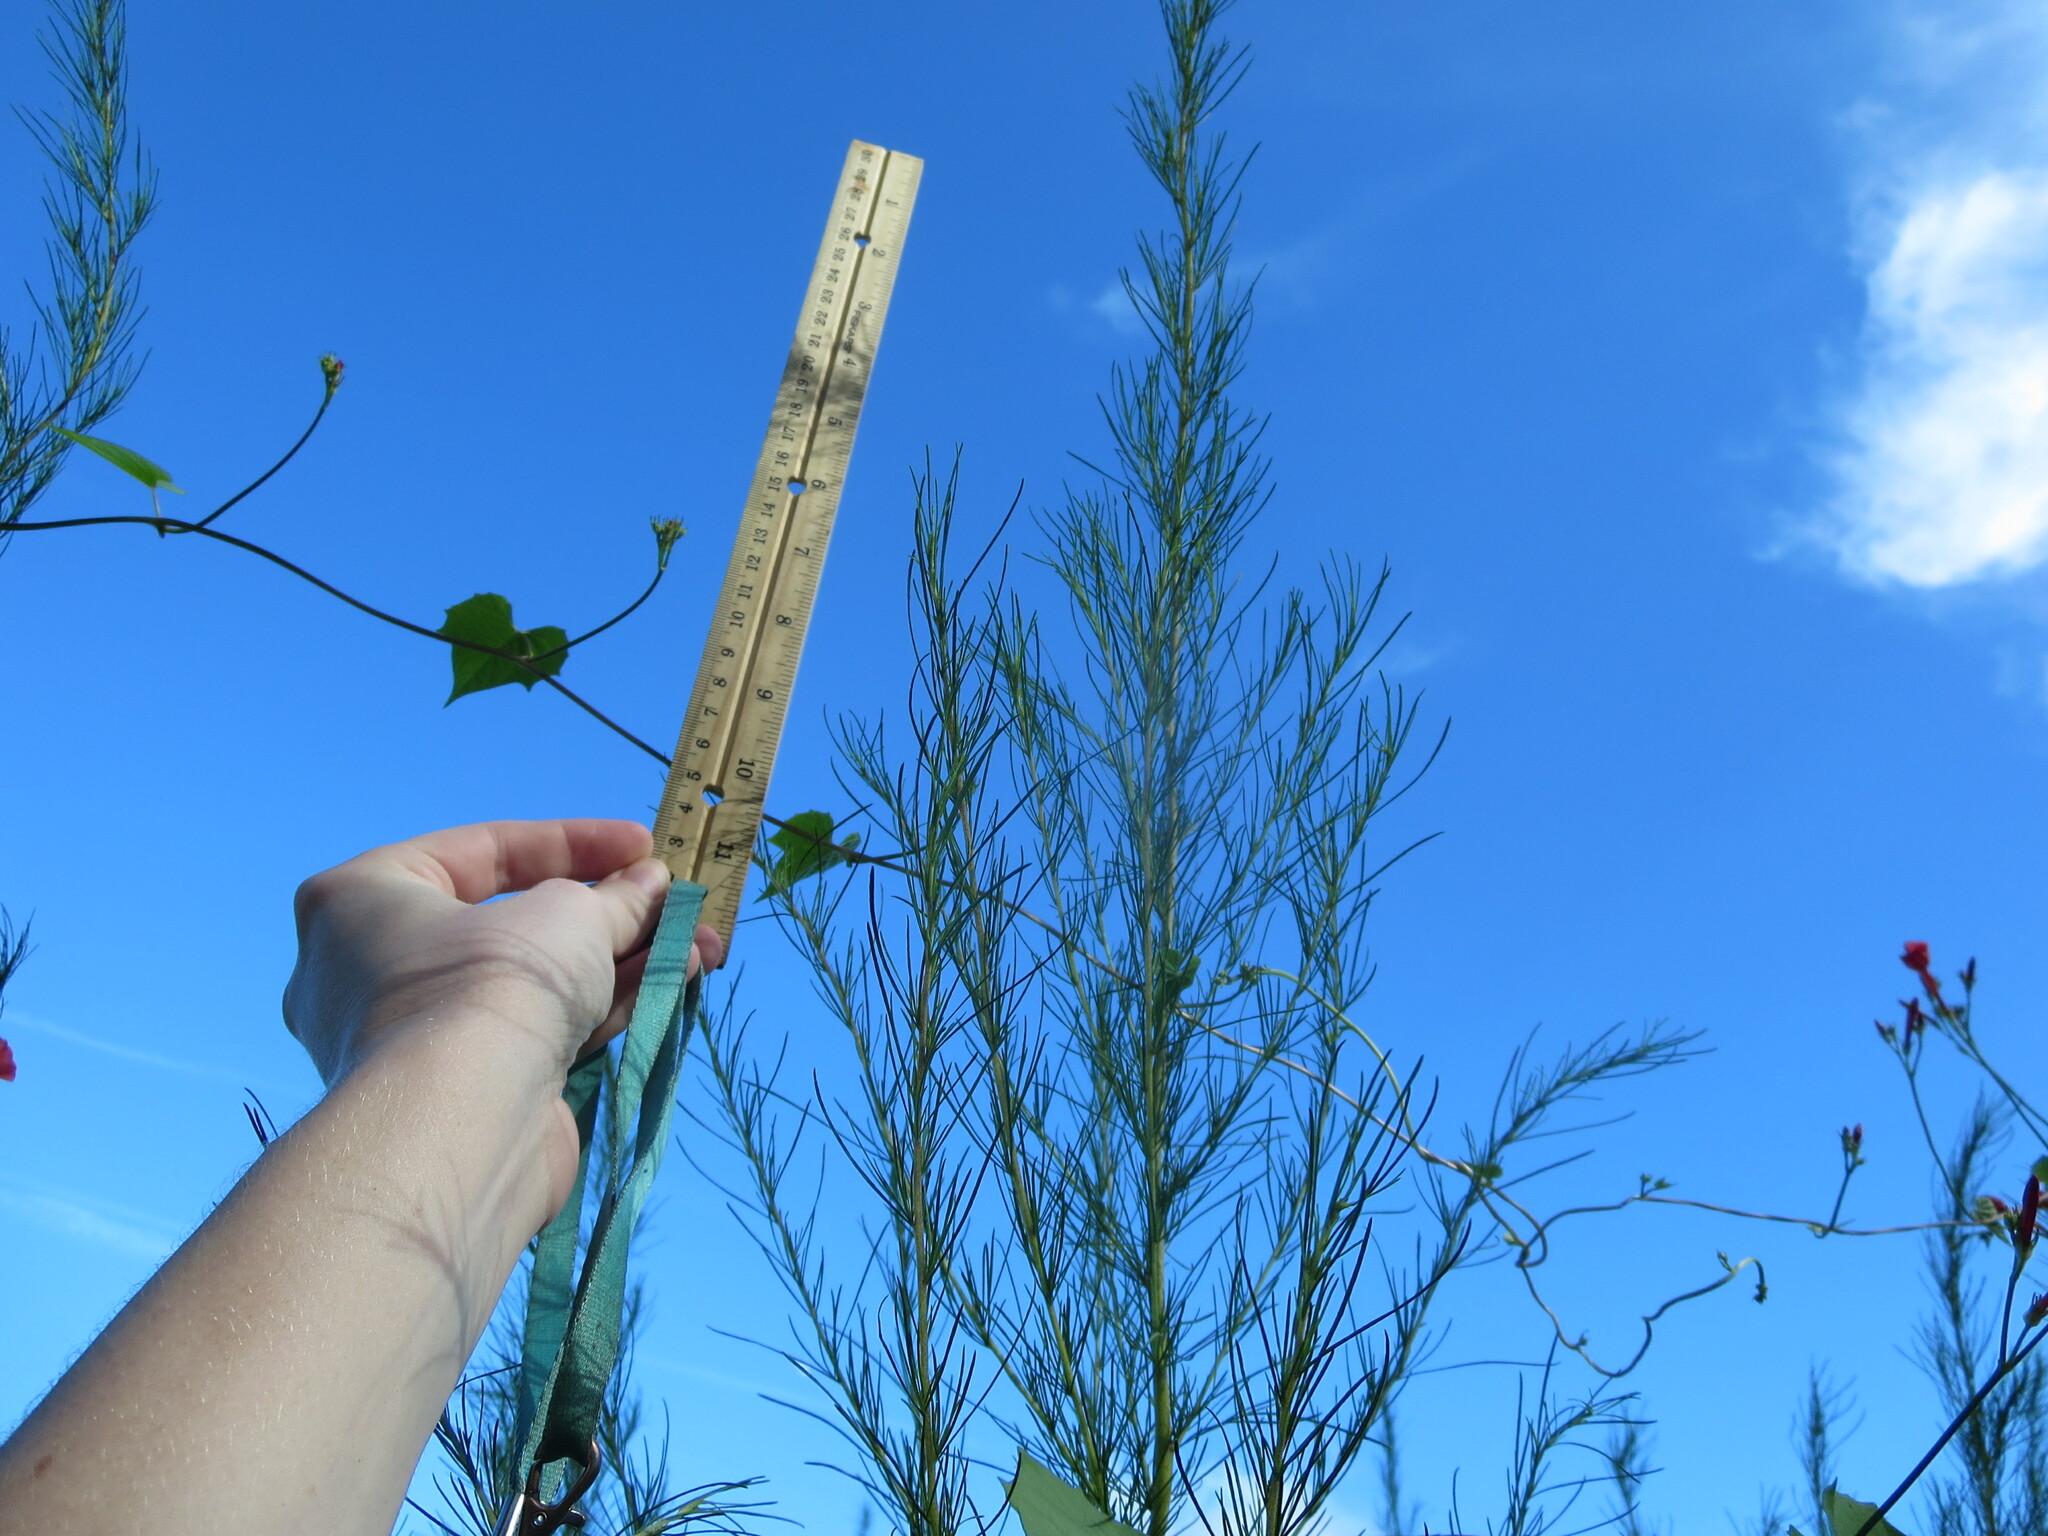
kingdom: Plantae
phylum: Tracheophyta
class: Magnoliopsida
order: Asterales
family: Asteraceae
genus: Eupatorium
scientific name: Eupatorium capillifolium
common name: Dog-fennel
